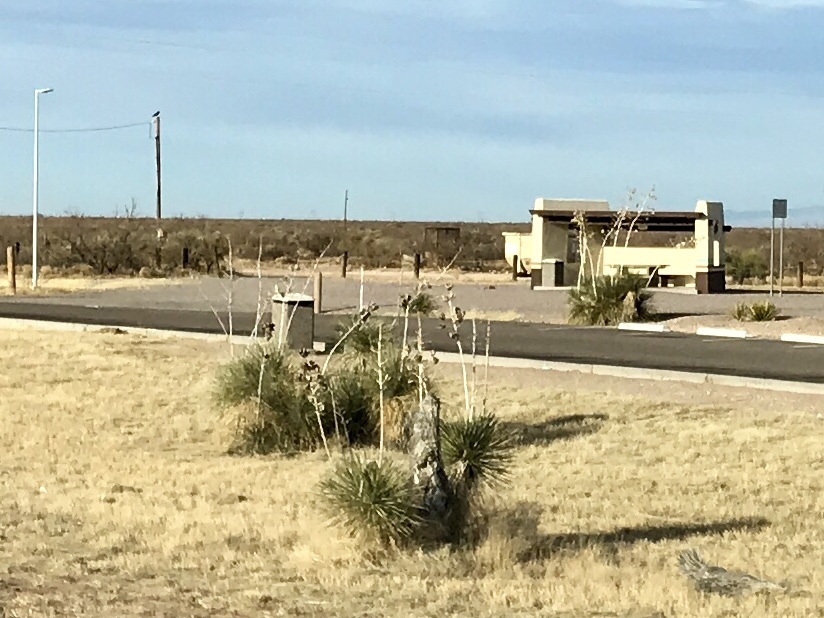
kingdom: Plantae
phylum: Tracheophyta
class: Liliopsida
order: Asparagales
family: Asparagaceae
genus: Yucca
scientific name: Yucca elata
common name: Palmella
